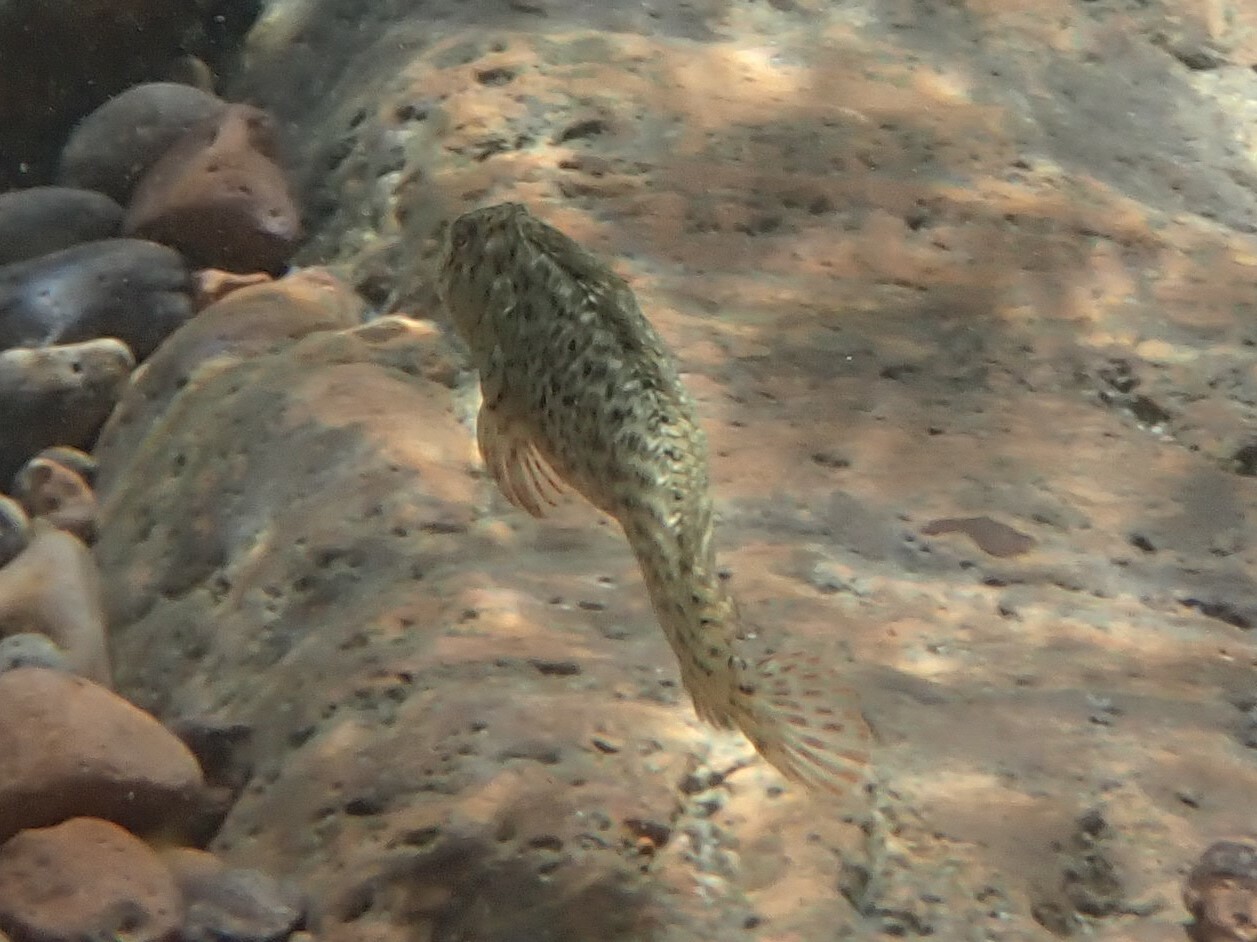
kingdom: Animalia
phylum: Chordata
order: Perciformes
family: Blenniidae
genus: Parablennius
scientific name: Parablennius sanguinolentus
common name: Black sea blenny
